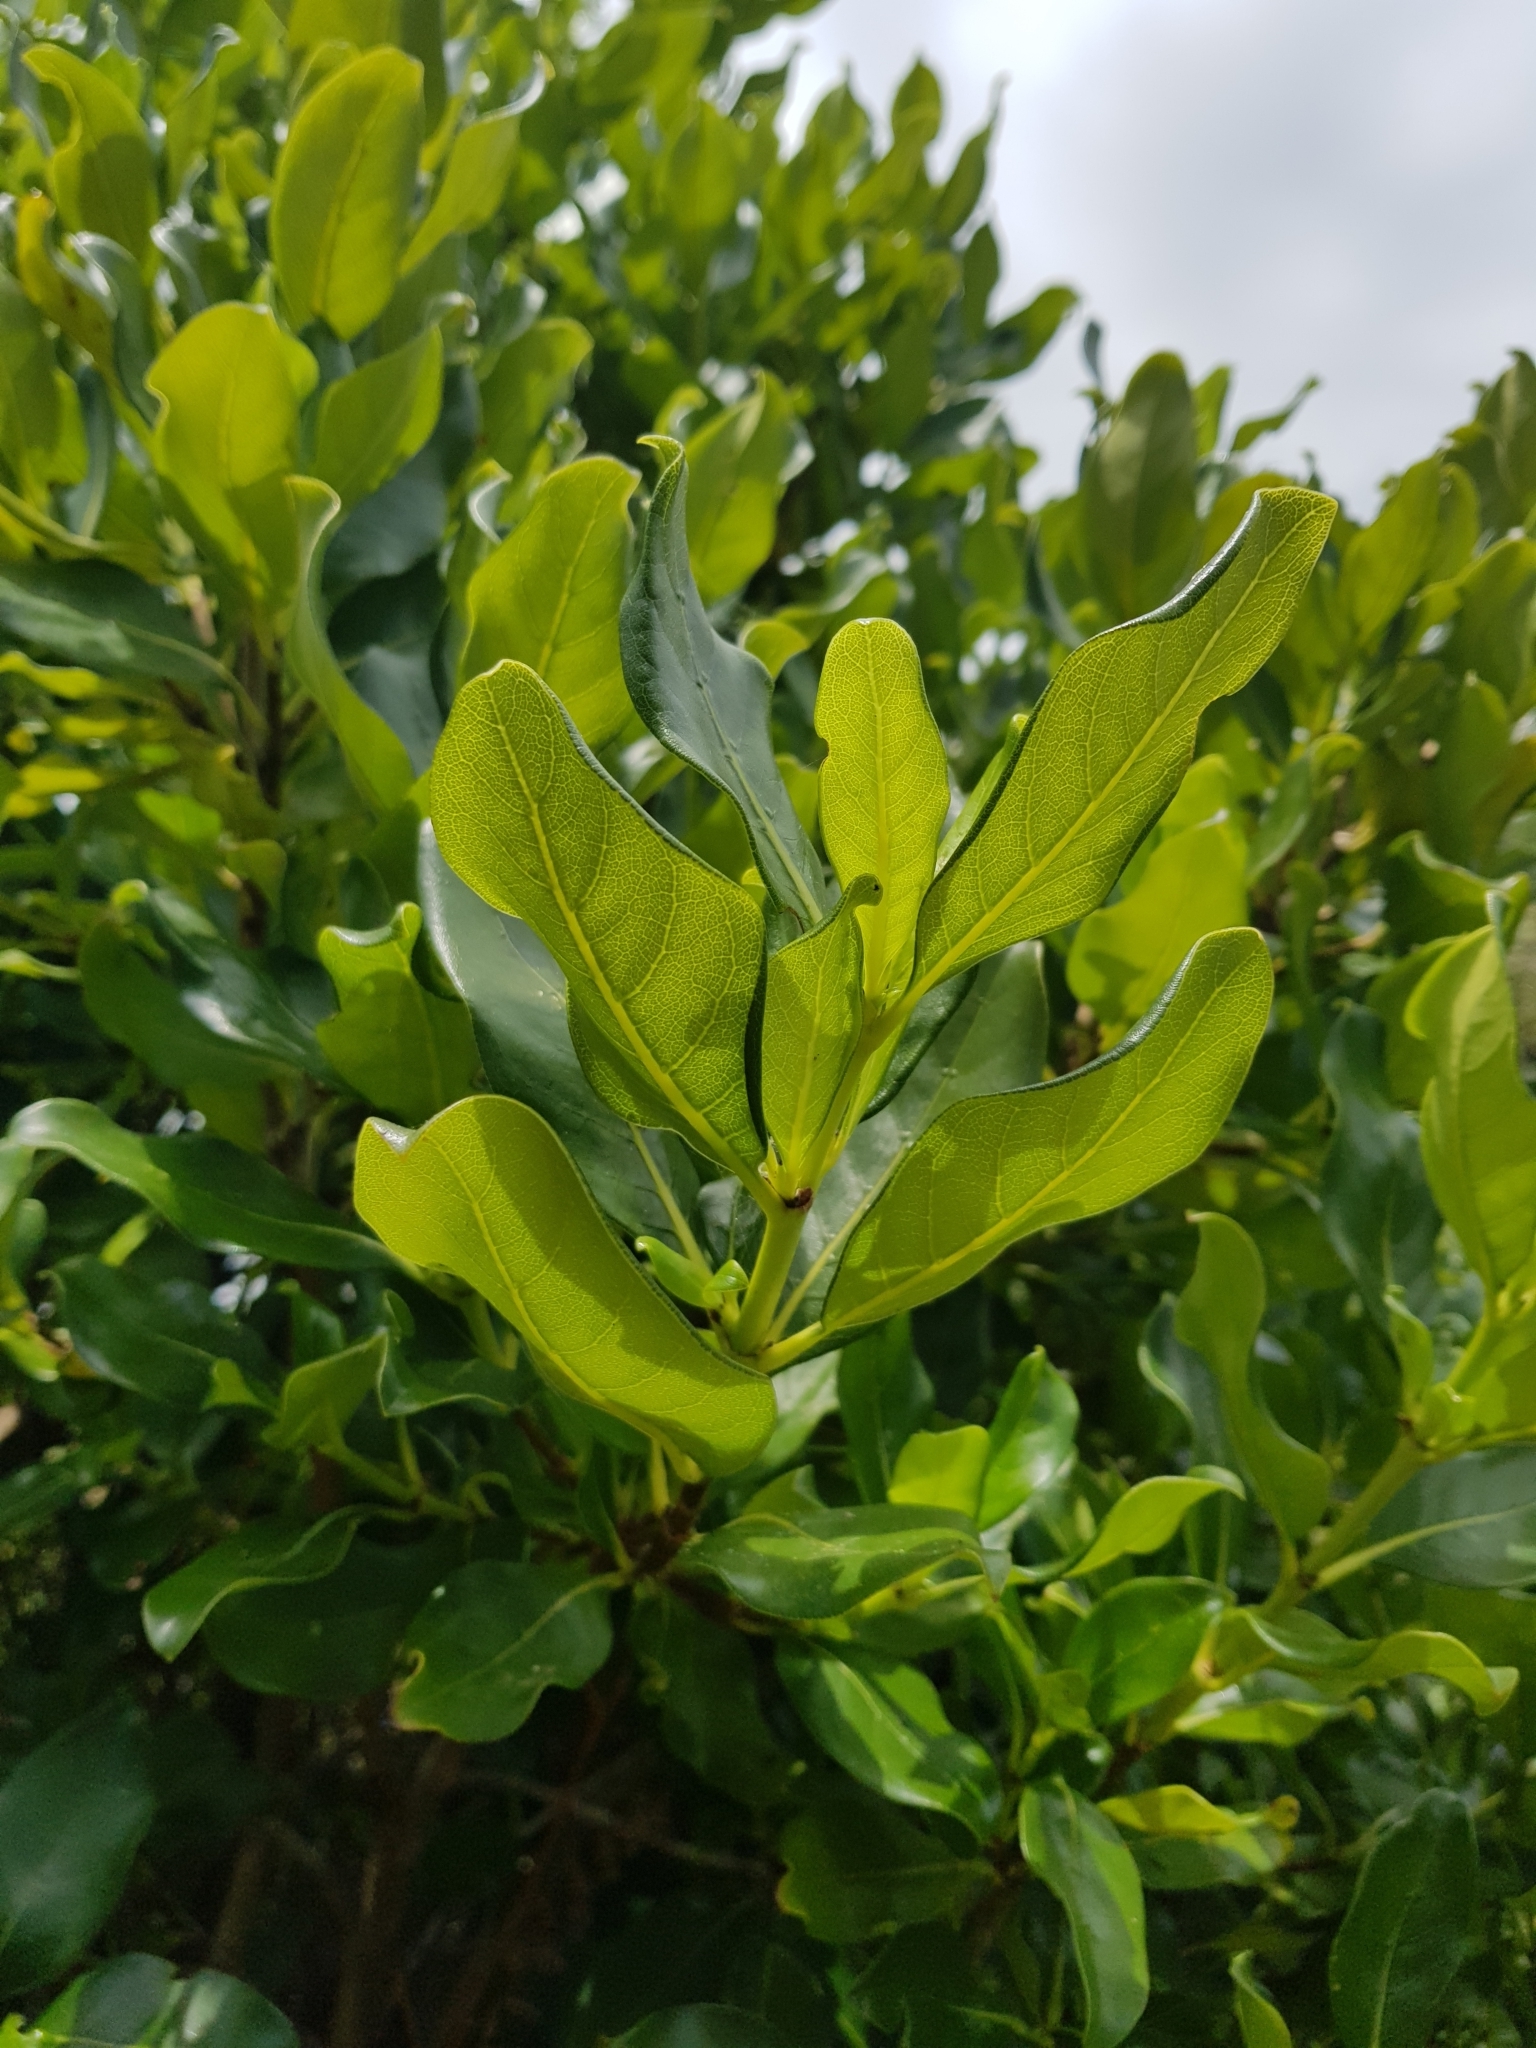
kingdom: Plantae
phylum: Tracheophyta
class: Magnoliopsida
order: Gentianales
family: Rubiaceae
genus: Coprosma
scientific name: Coprosma macrocarpa
